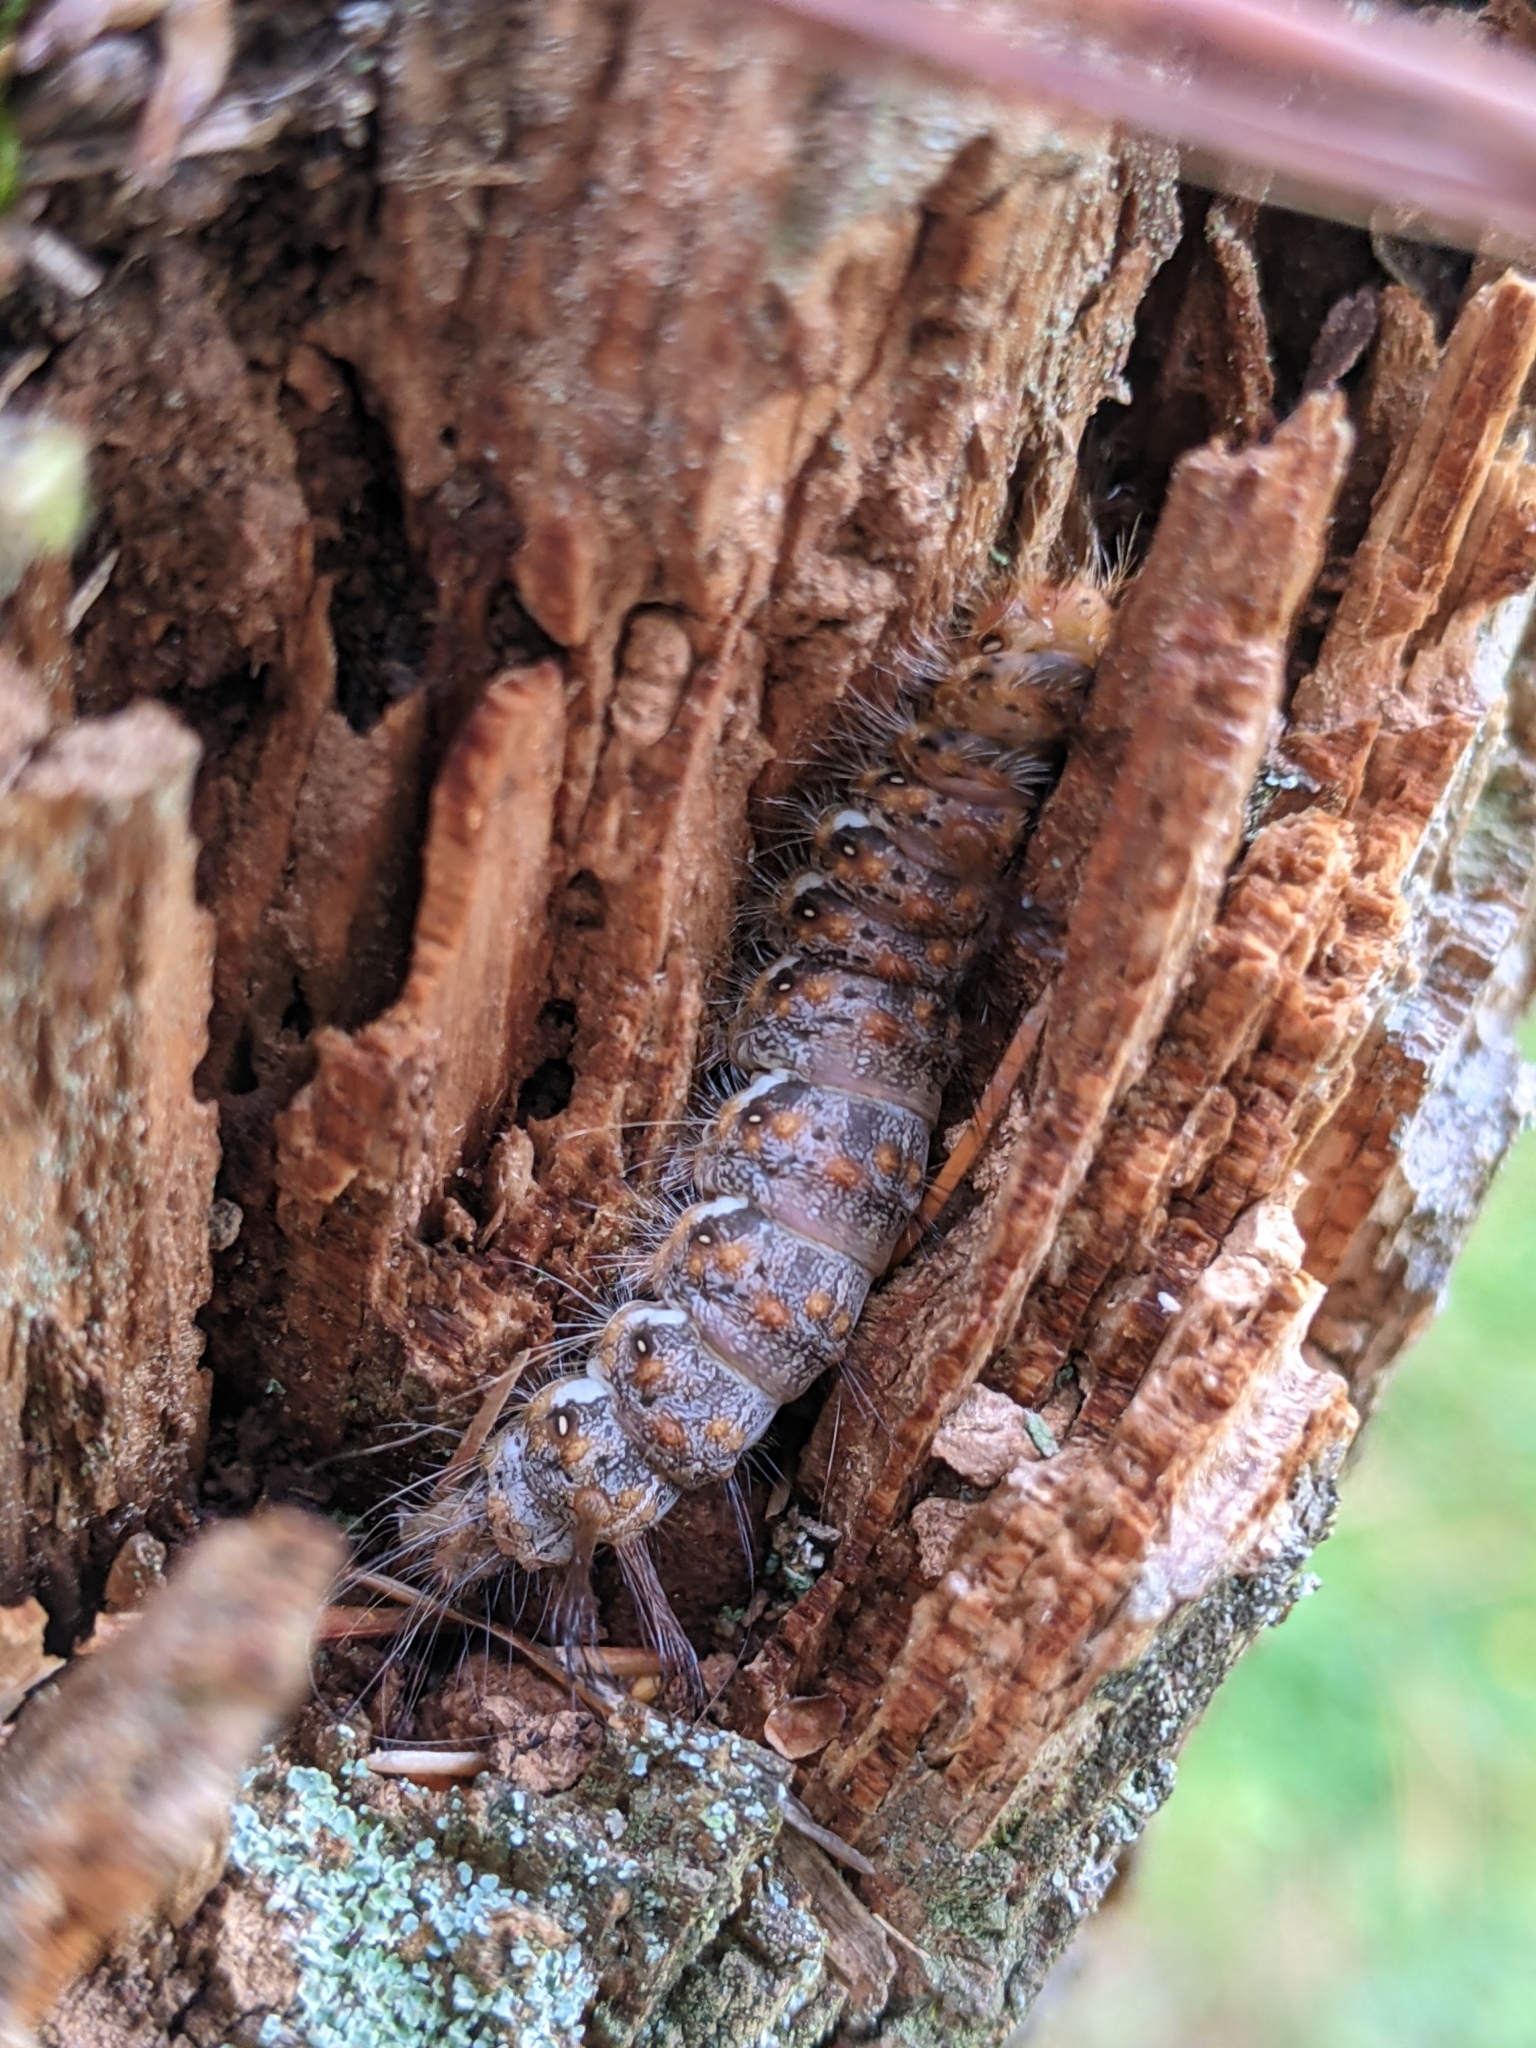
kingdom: Animalia
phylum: Arthropoda
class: Insecta
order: Lepidoptera
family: Noctuidae
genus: Panthea
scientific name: Panthea furcilla
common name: Eastern panthea moth
